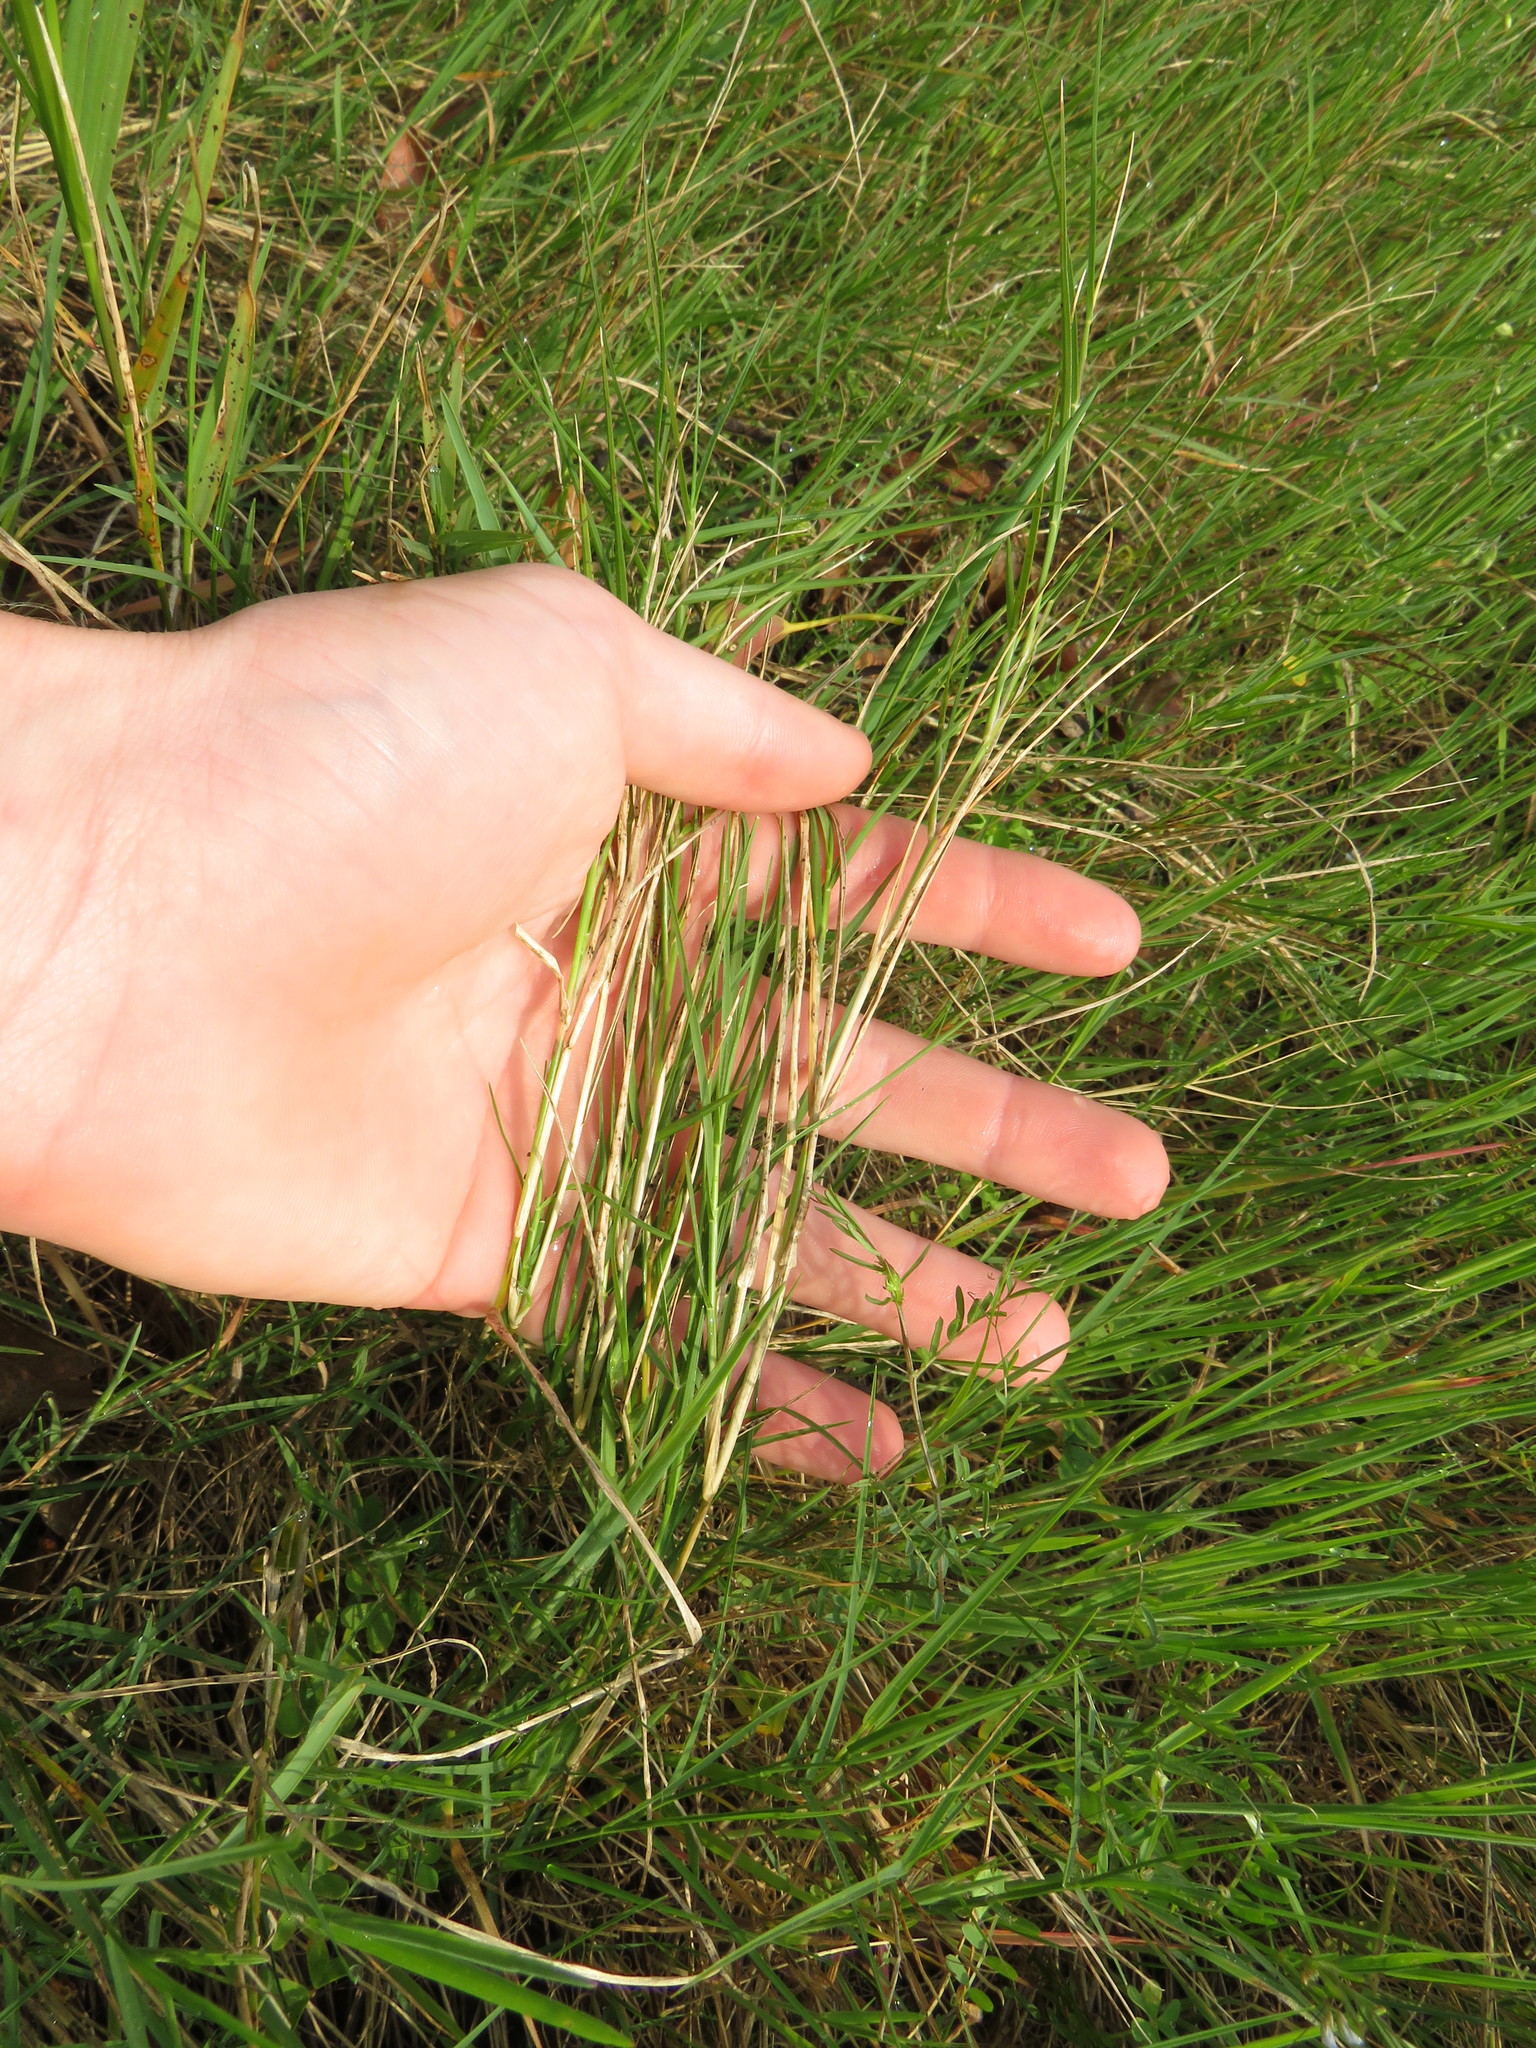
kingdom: Plantae
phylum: Tracheophyta
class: Liliopsida
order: Poales
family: Poaceae
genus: Cynodon
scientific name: Cynodon dactylon
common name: Bermuda grass
